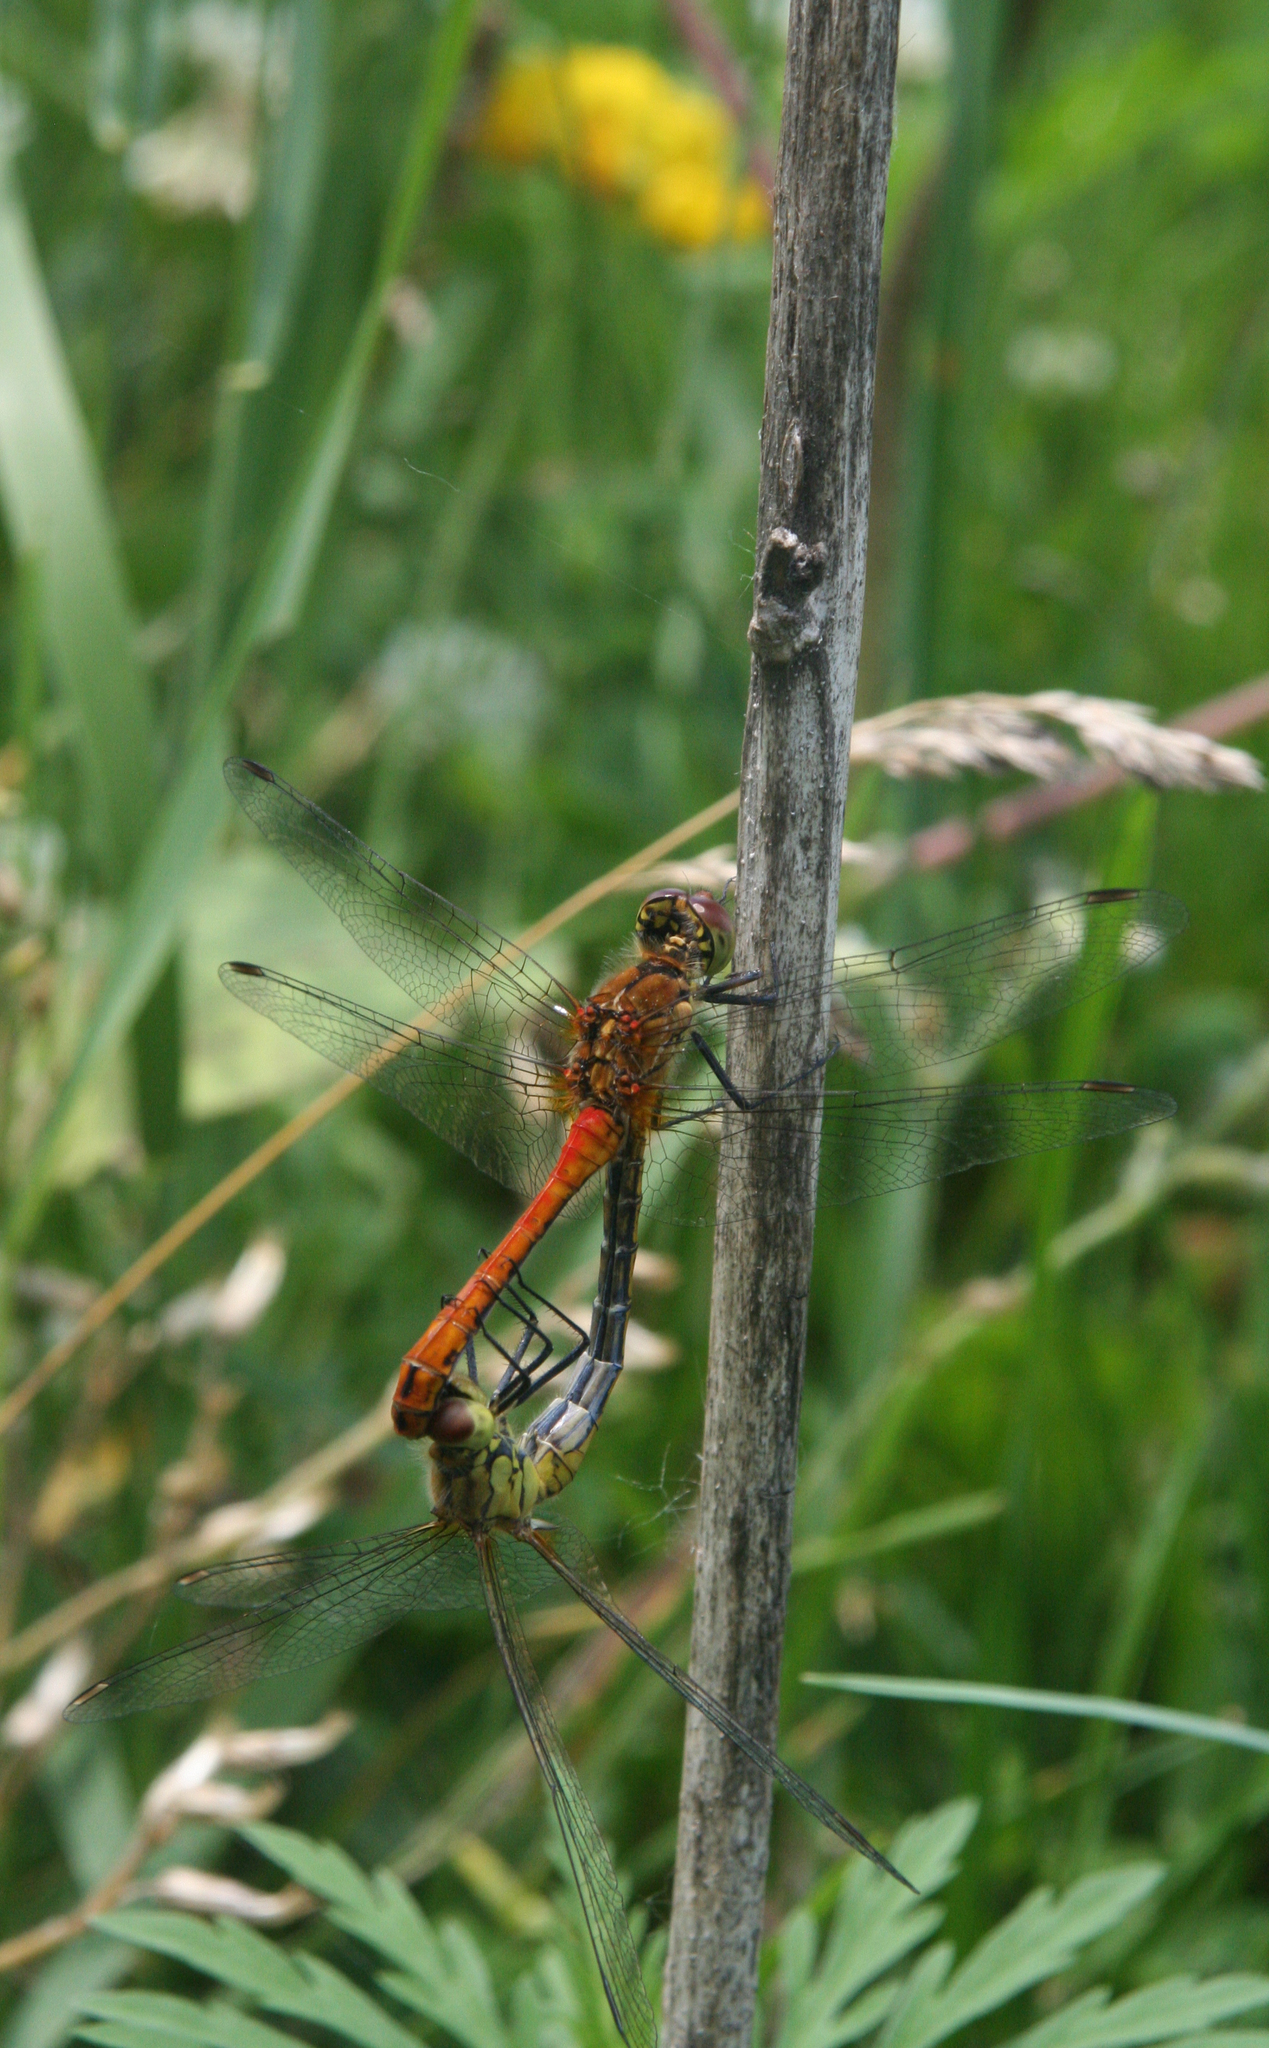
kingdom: Animalia
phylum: Arthropoda
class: Insecta
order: Odonata
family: Libellulidae
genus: Sympetrum
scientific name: Sympetrum sanguineum
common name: Ruddy darter
